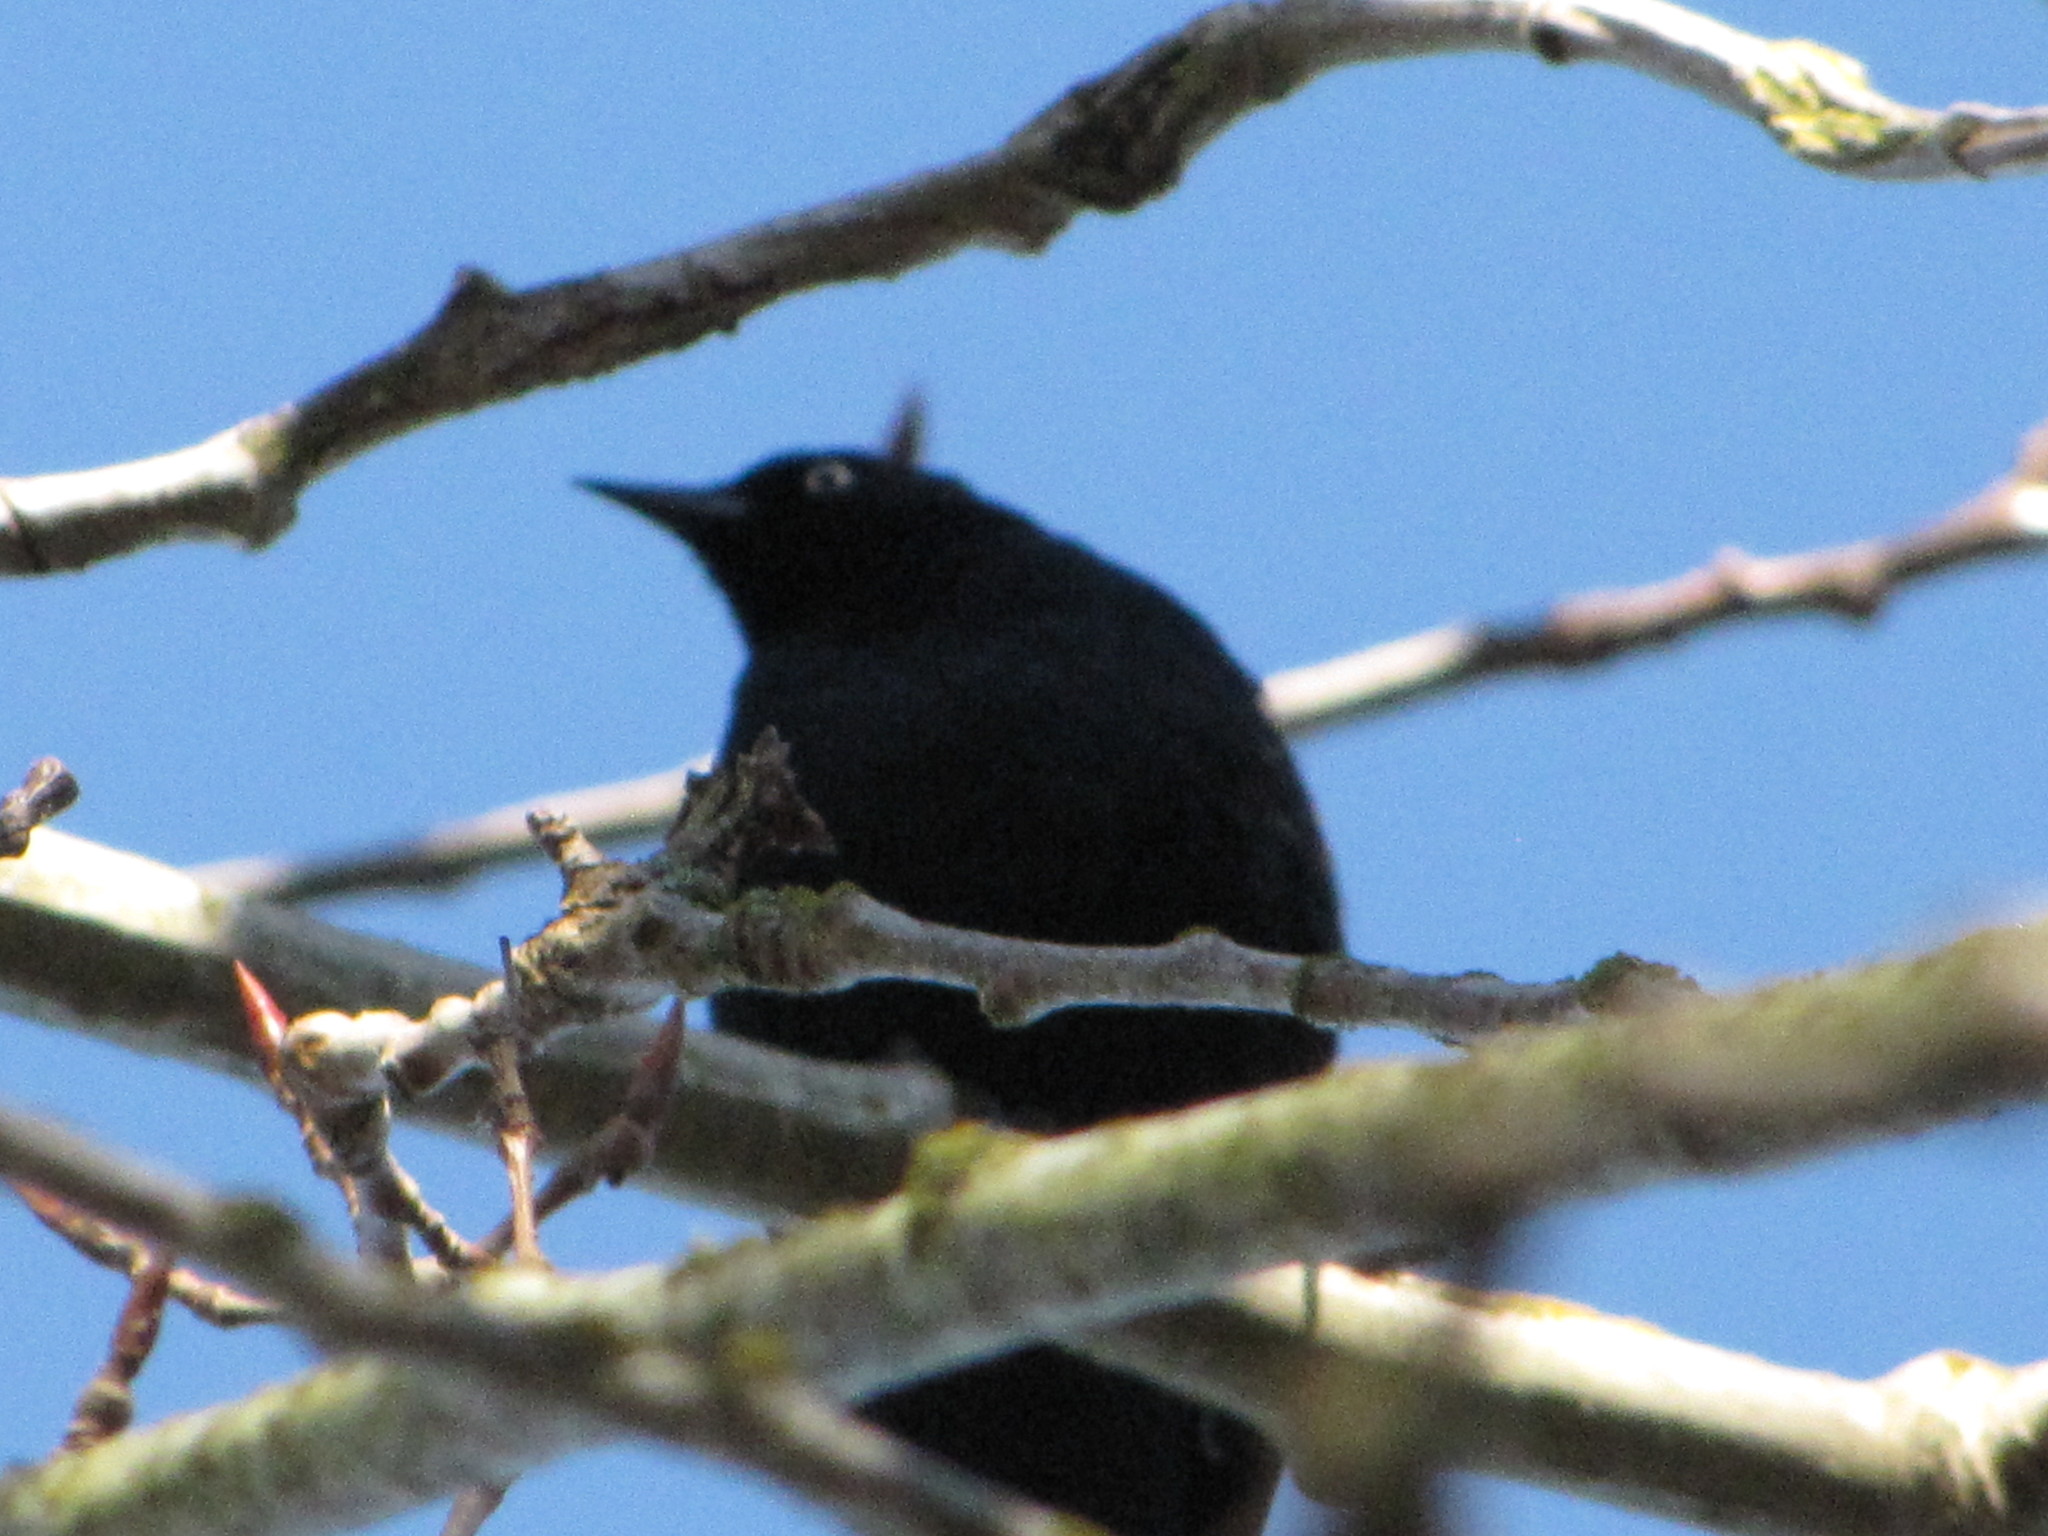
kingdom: Animalia
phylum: Chordata
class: Aves
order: Passeriformes
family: Icteridae
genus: Euphagus
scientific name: Euphagus cyanocephalus
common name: Brewer's blackbird
